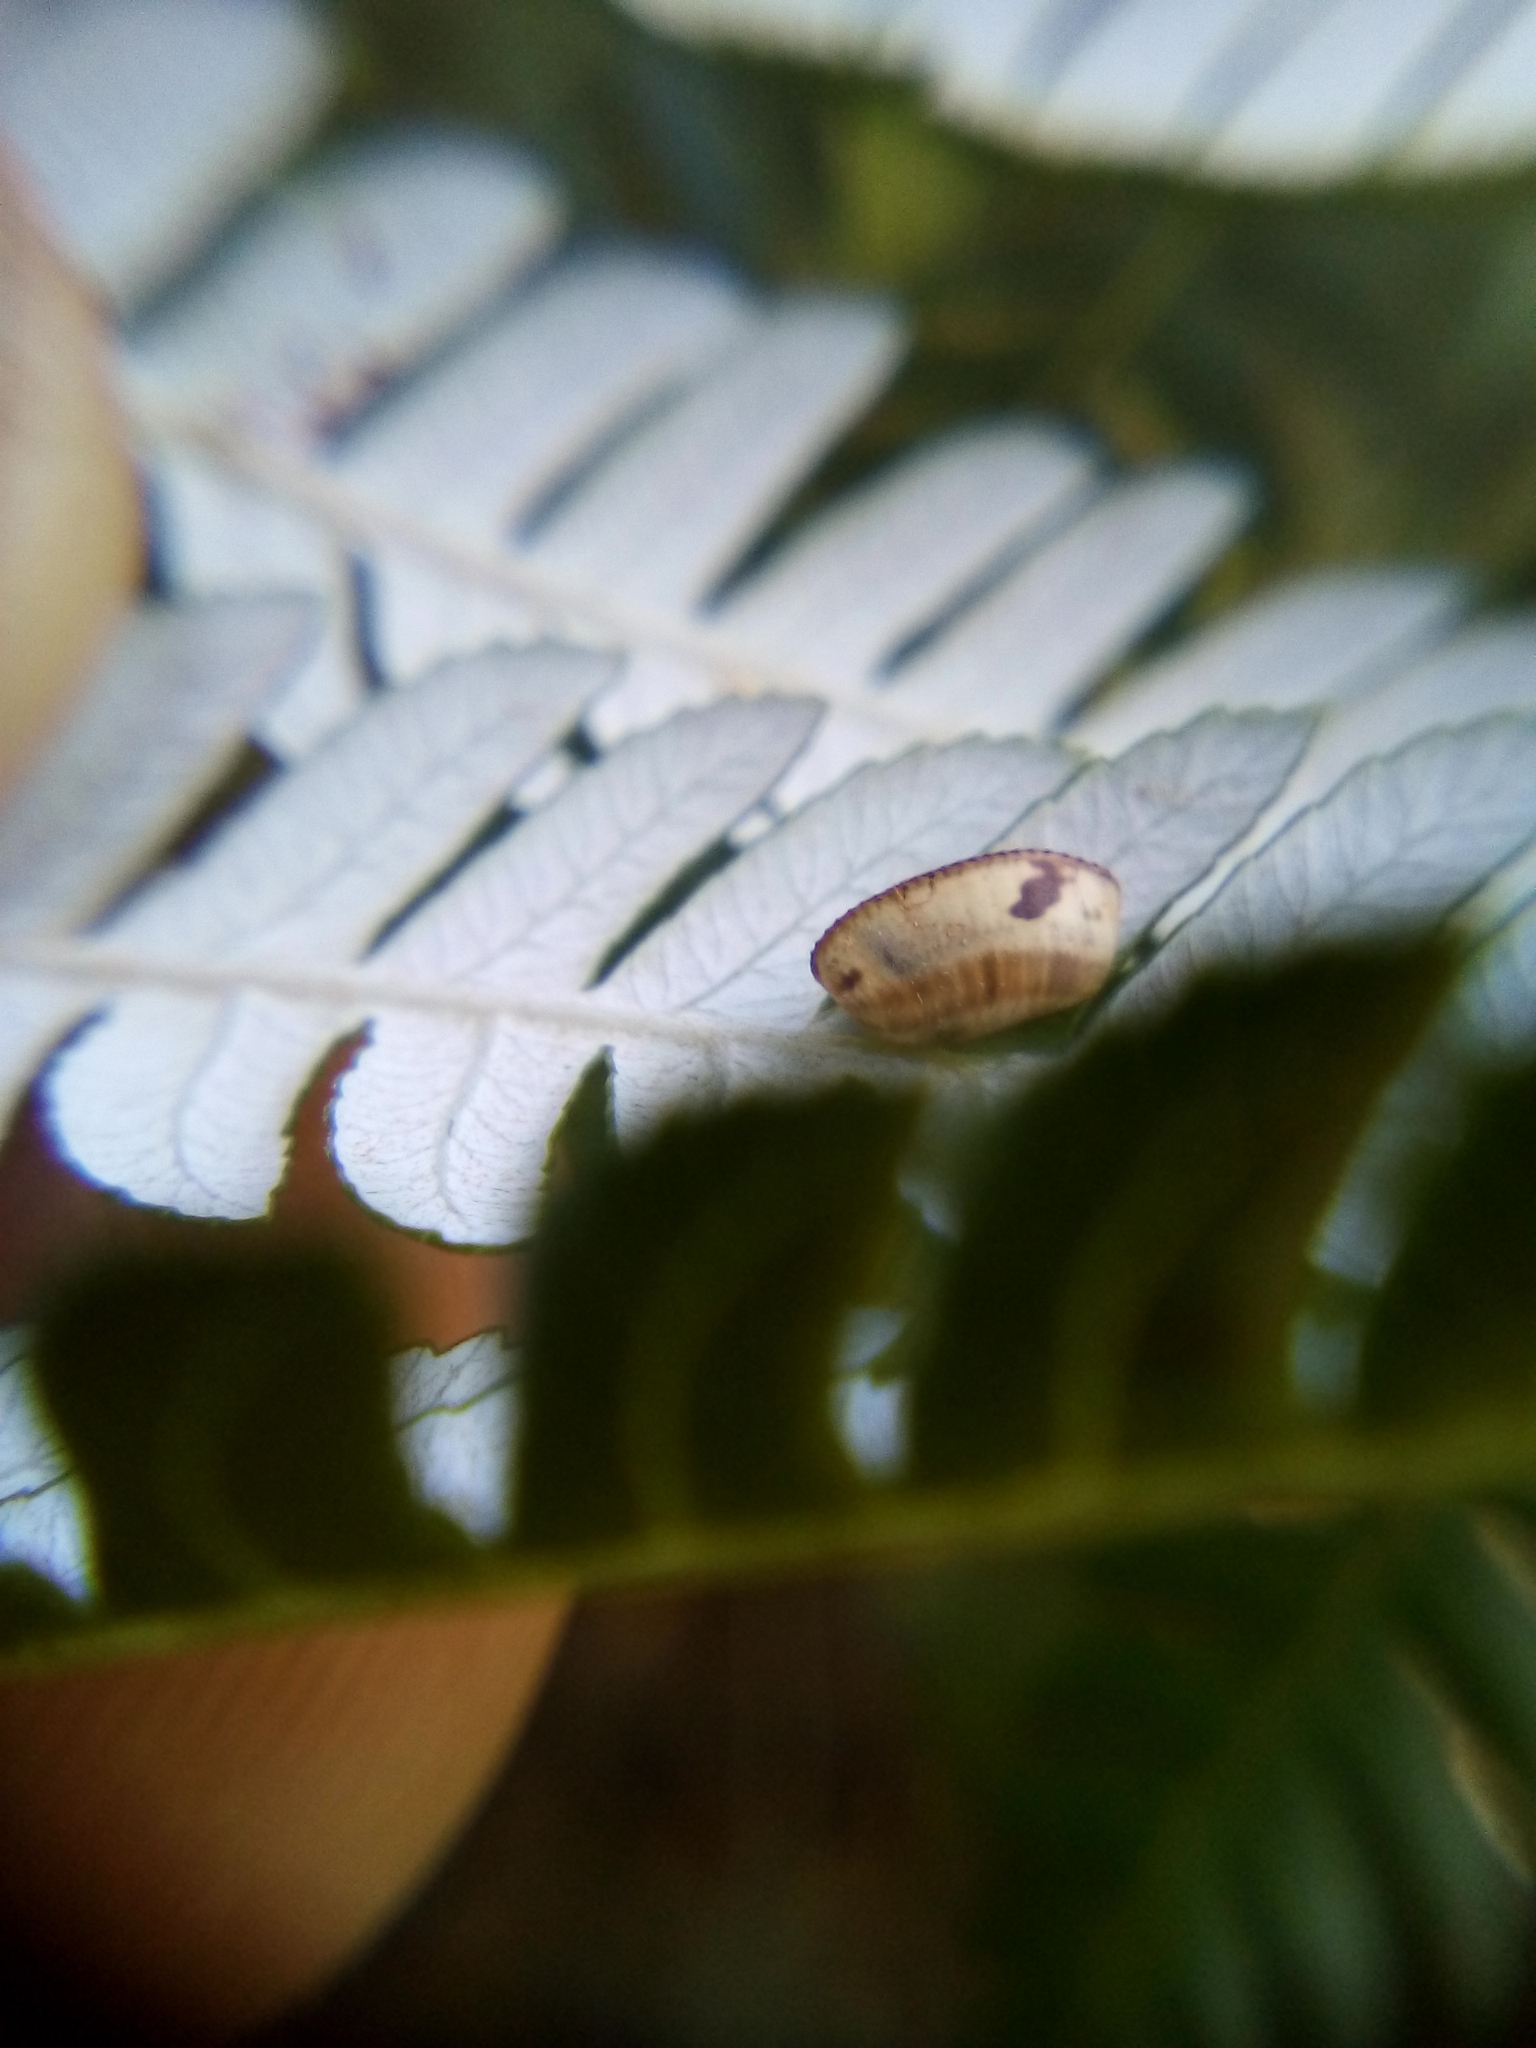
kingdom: Animalia
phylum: Arthropoda
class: Insecta
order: Blattodea
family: Ectobiidae
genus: Balta
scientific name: Balta bicolor
